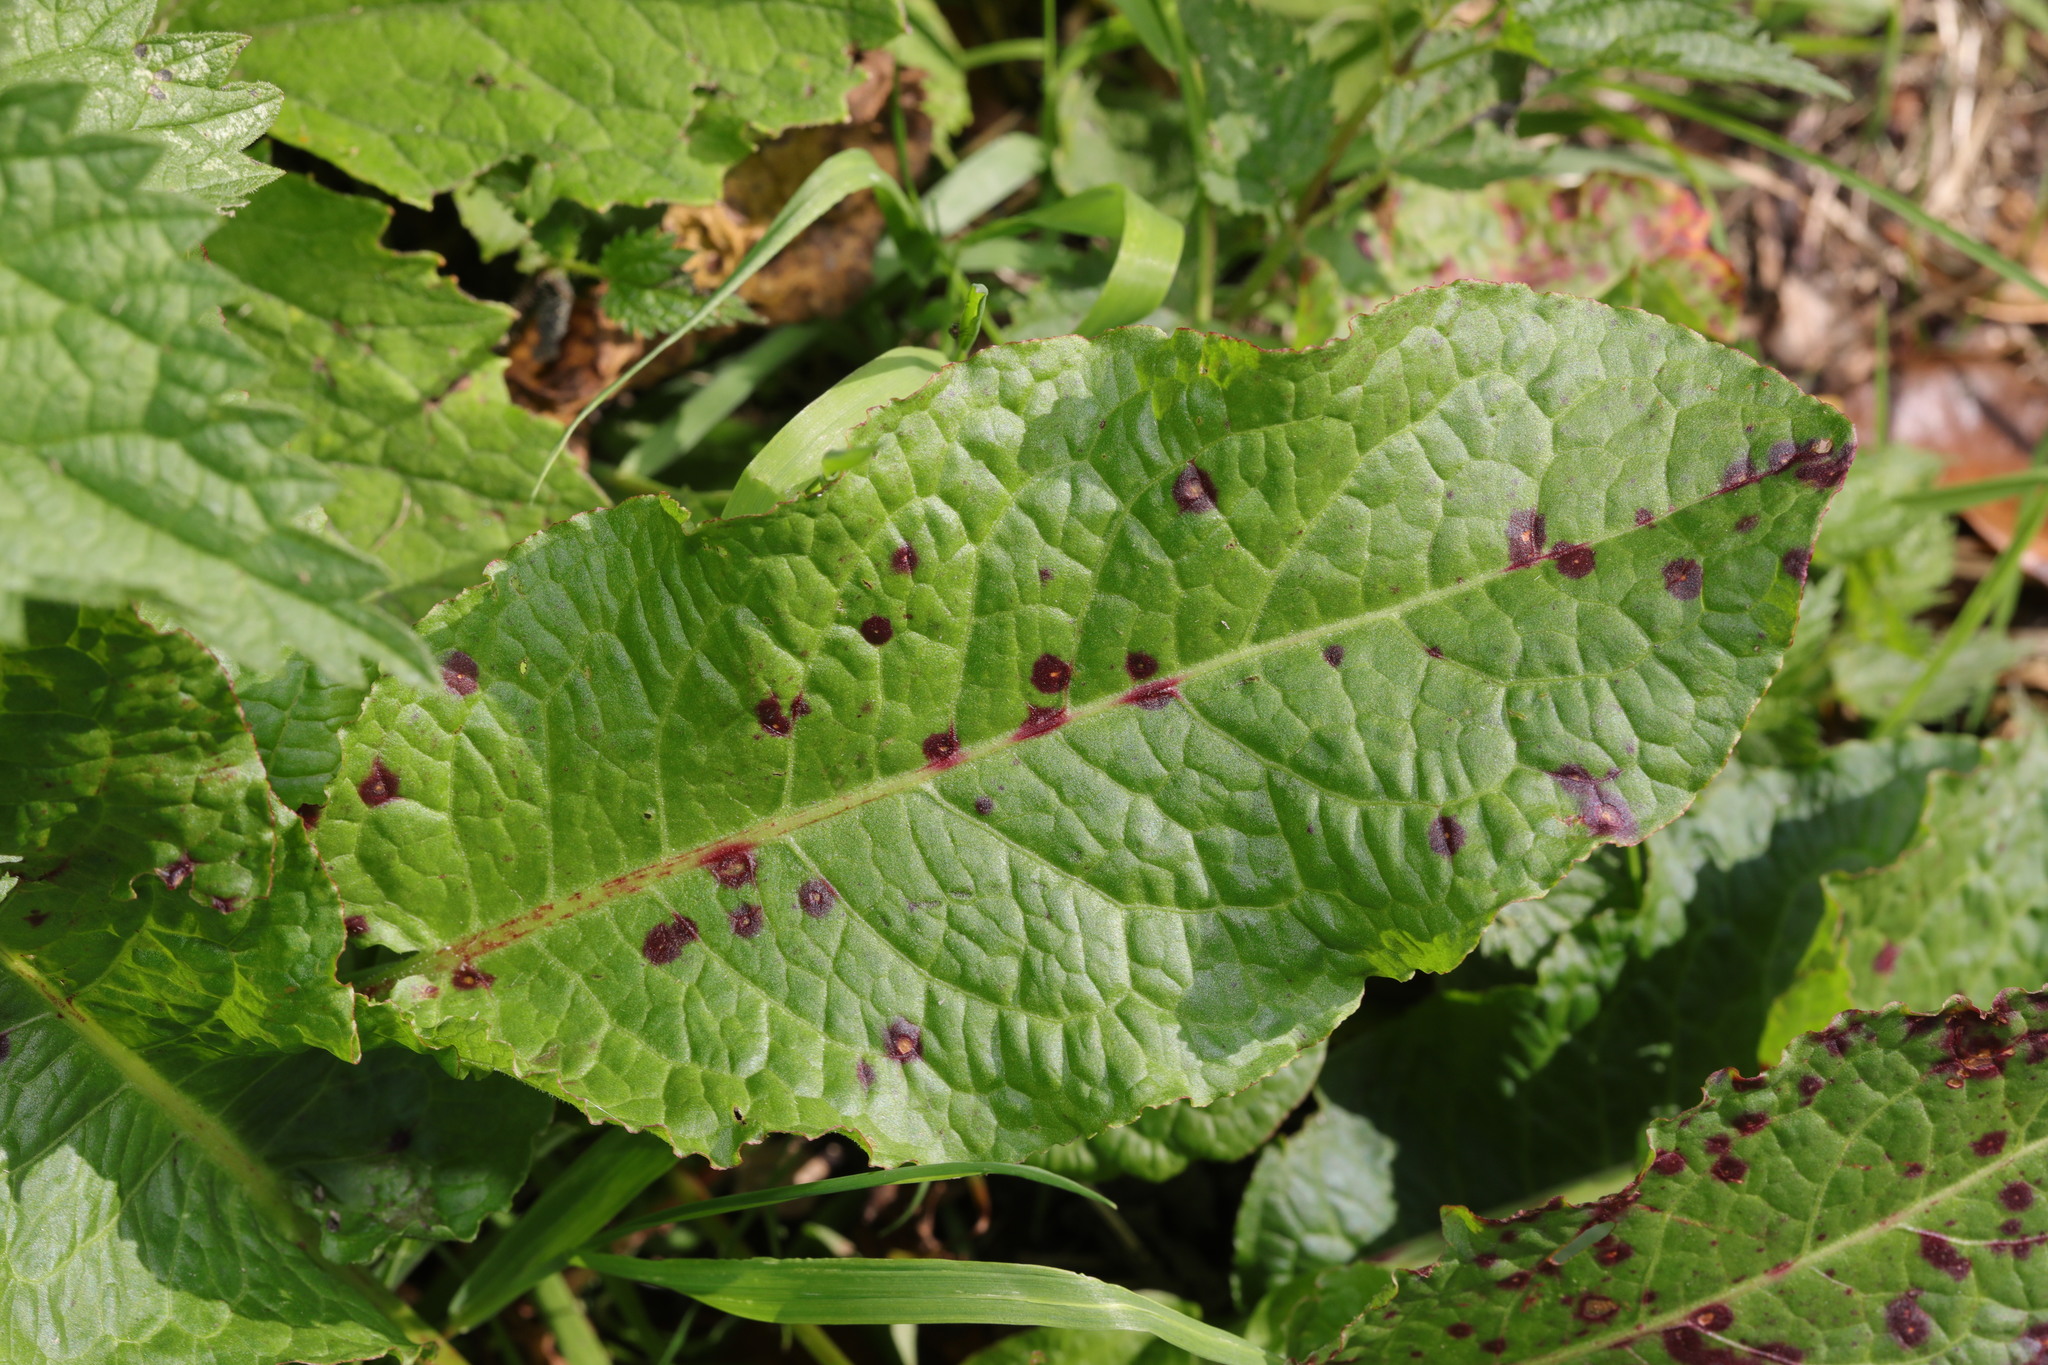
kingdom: Plantae
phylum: Tracheophyta
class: Magnoliopsida
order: Caryophyllales
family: Polygonaceae
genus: Rumex
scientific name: Rumex obtusifolius
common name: Bitter dock
